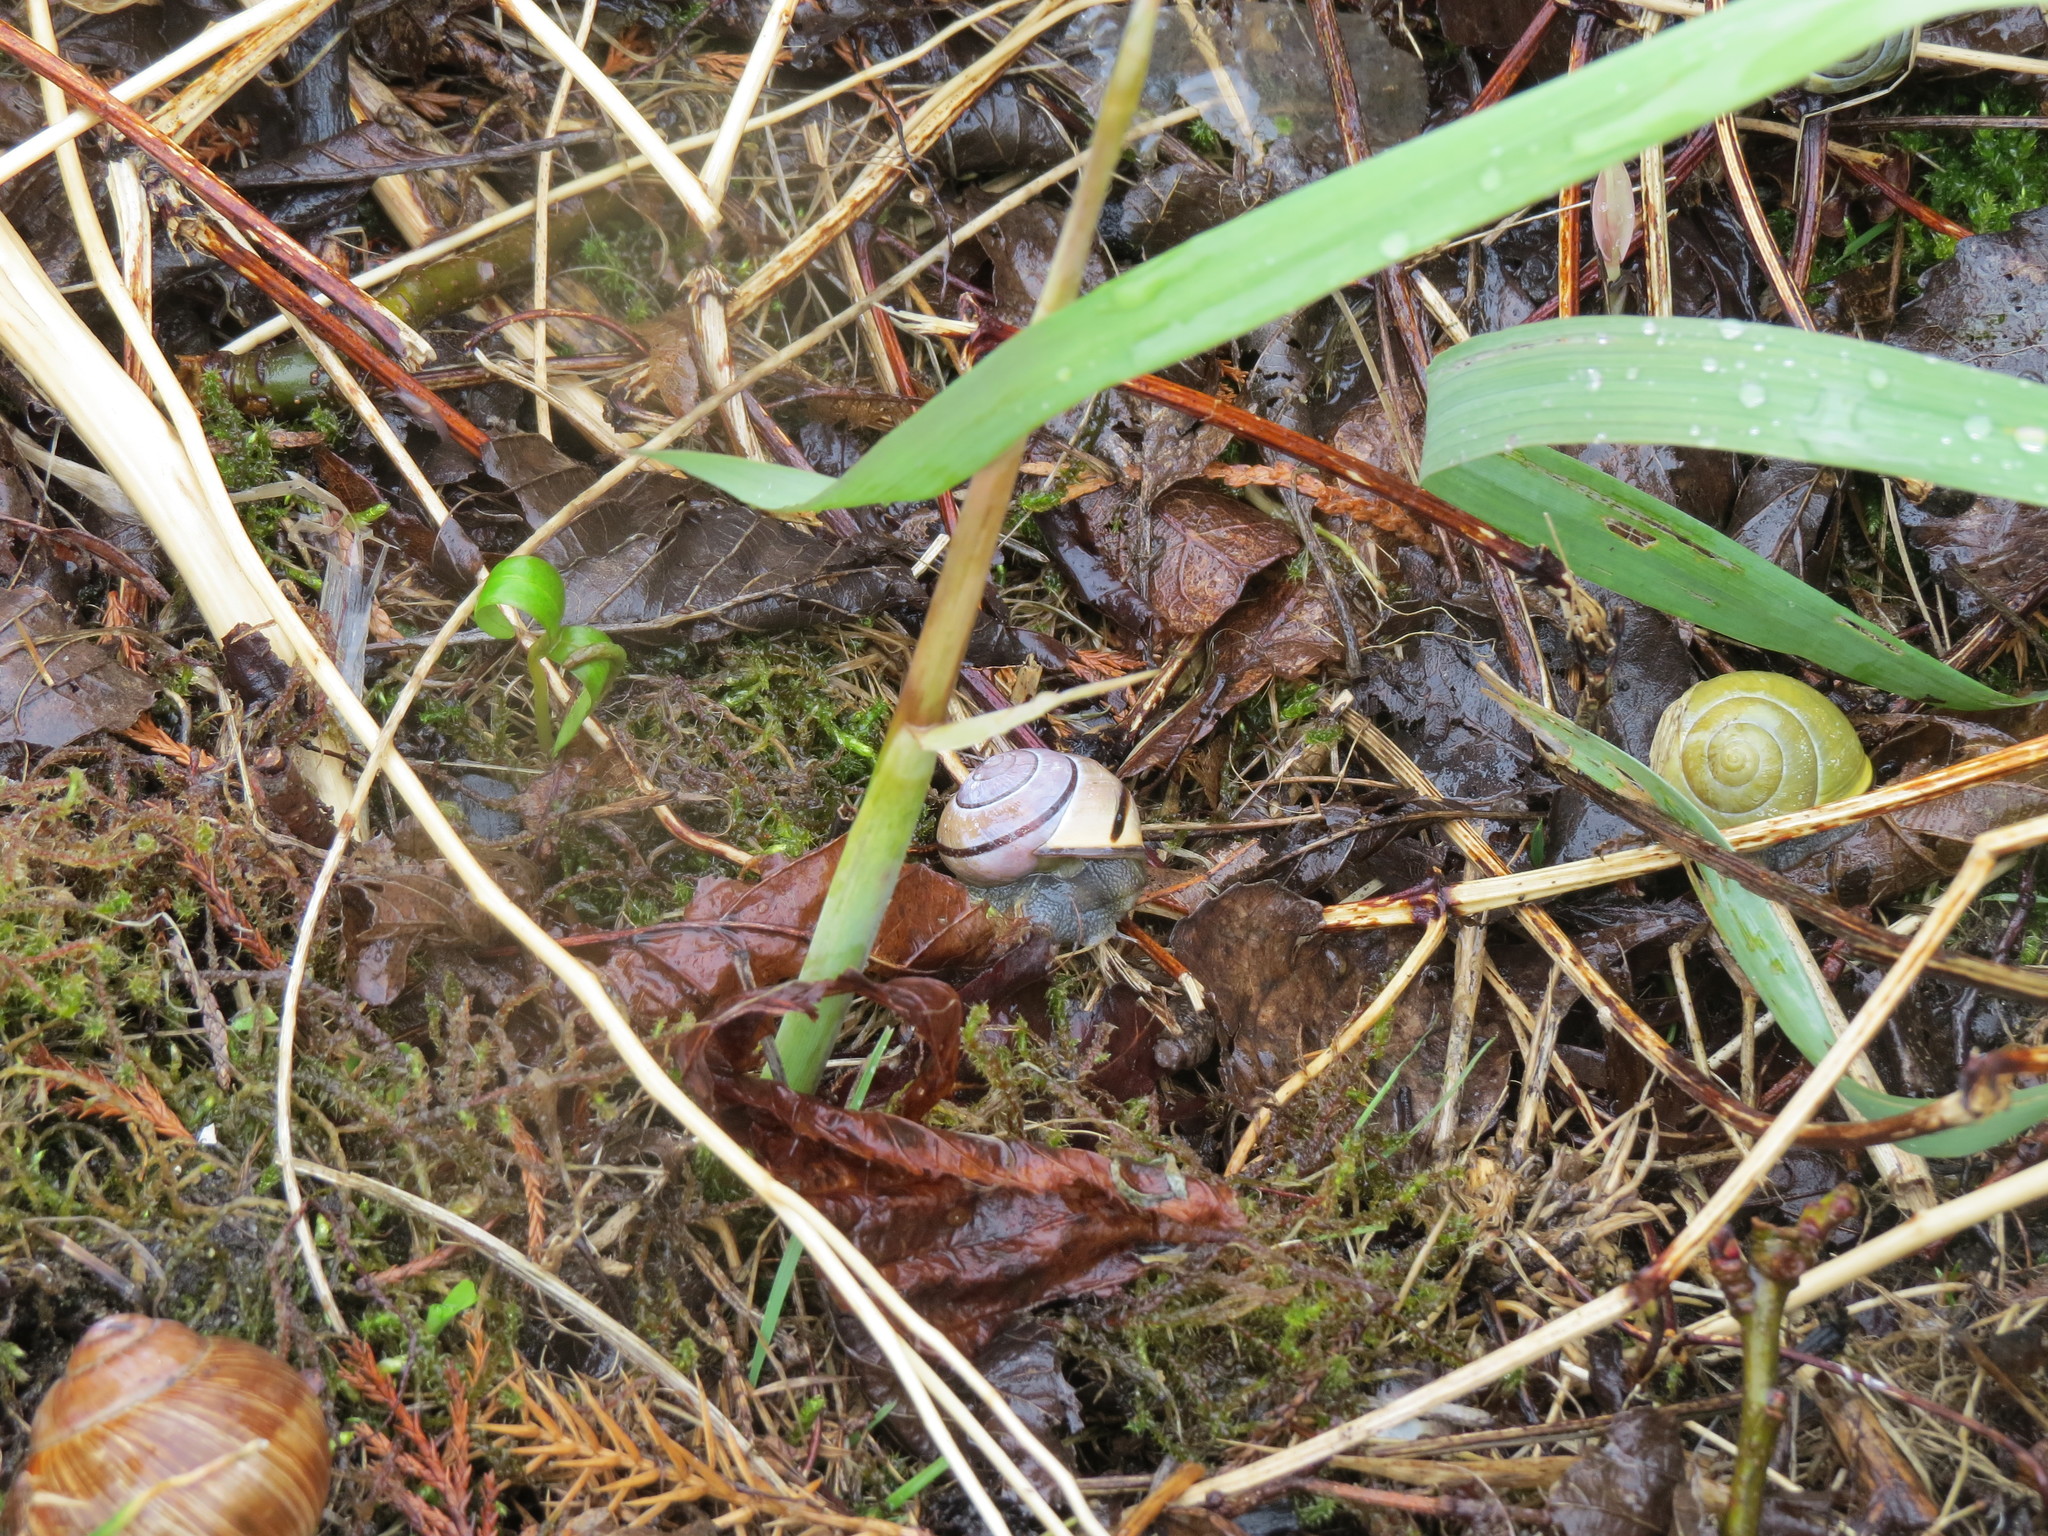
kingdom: Animalia
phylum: Mollusca
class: Gastropoda
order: Stylommatophora
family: Helicidae
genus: Cepaea
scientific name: Cepaea nemoralis
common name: Grovesnail
